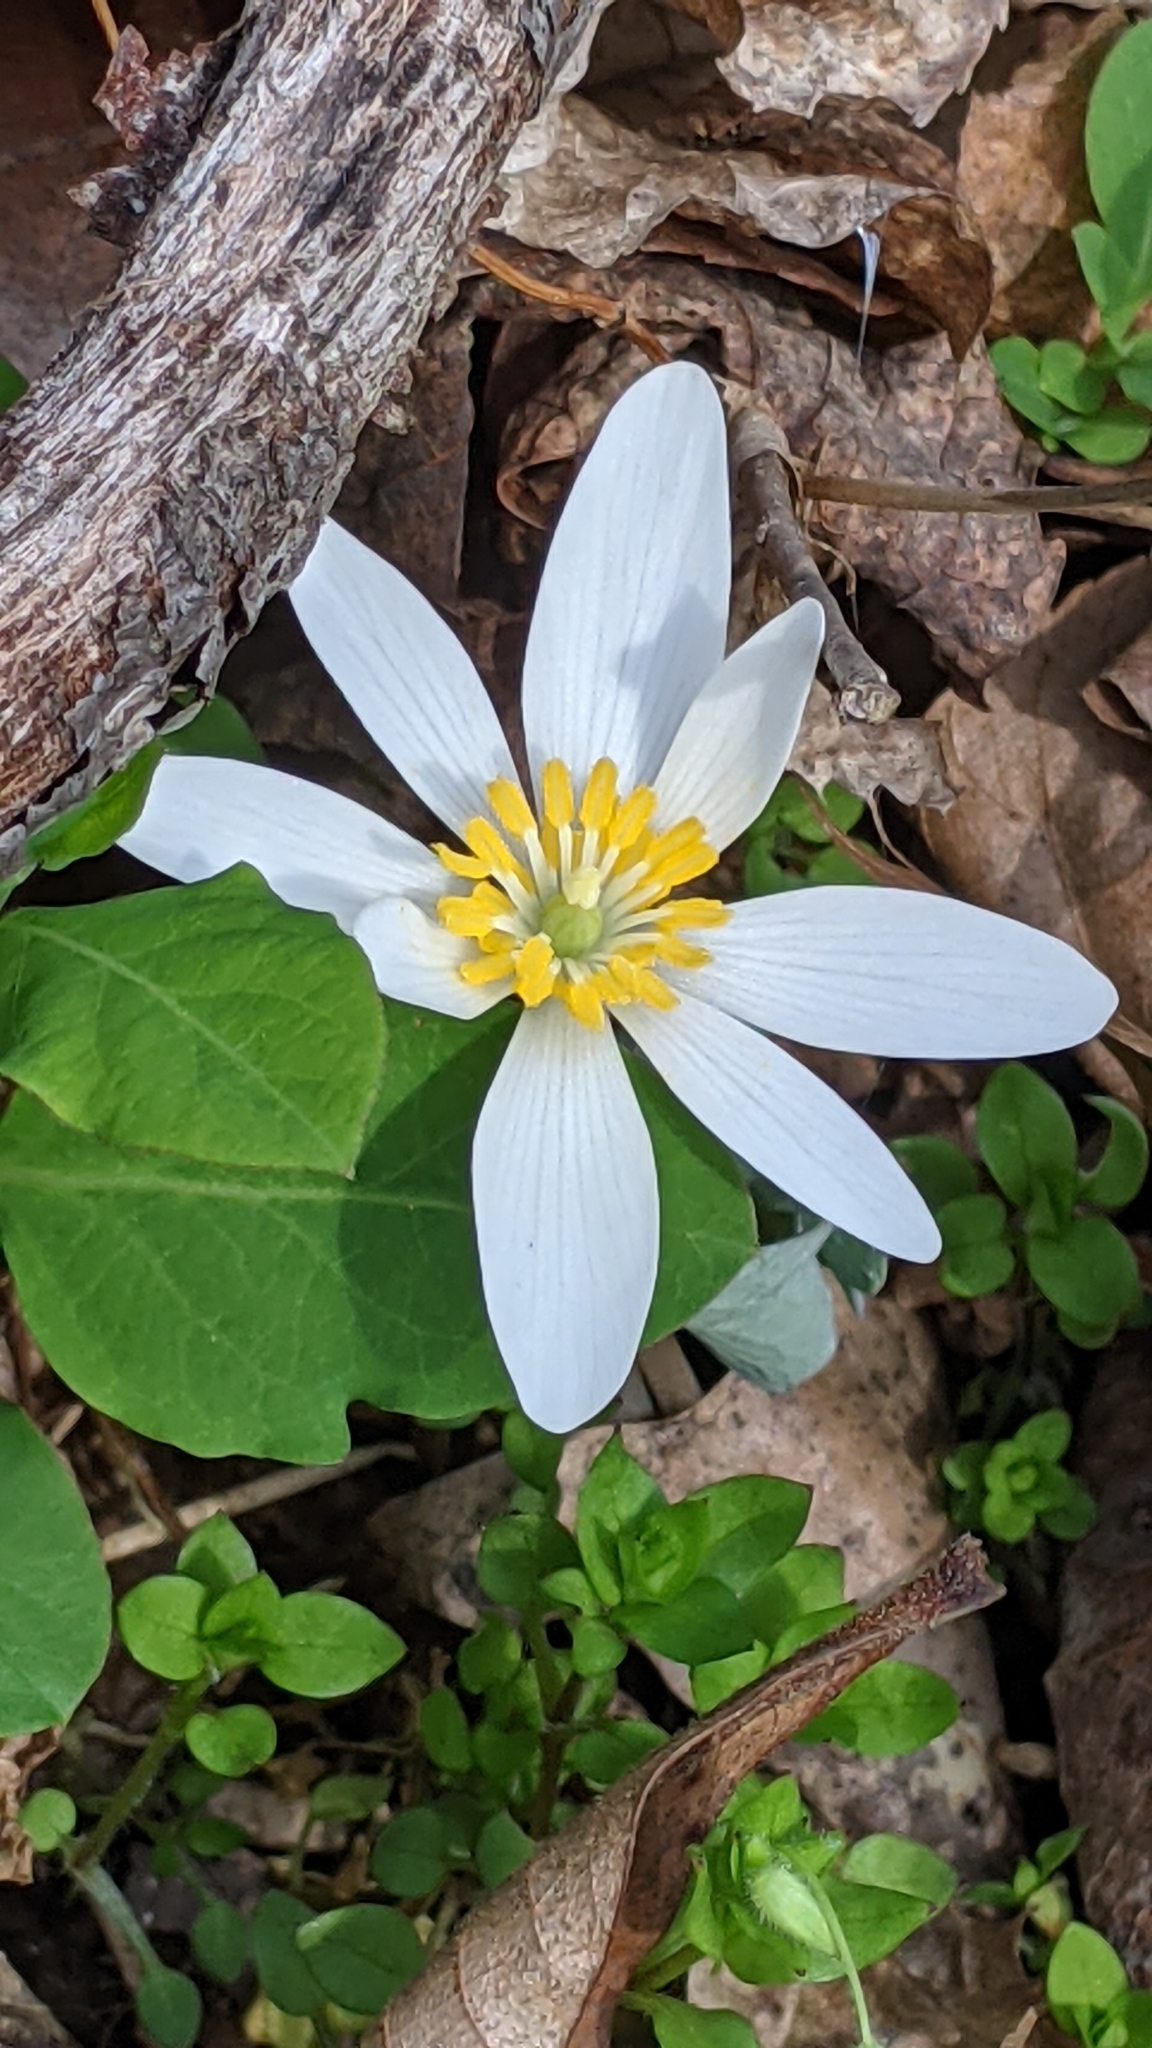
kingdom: Plantae
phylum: Tracheophyta
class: Magnoliopsida
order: Ranunculales
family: Papaveraceae
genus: Sanguinaria
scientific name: Sanguinaria canadensis
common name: Bloodroot
